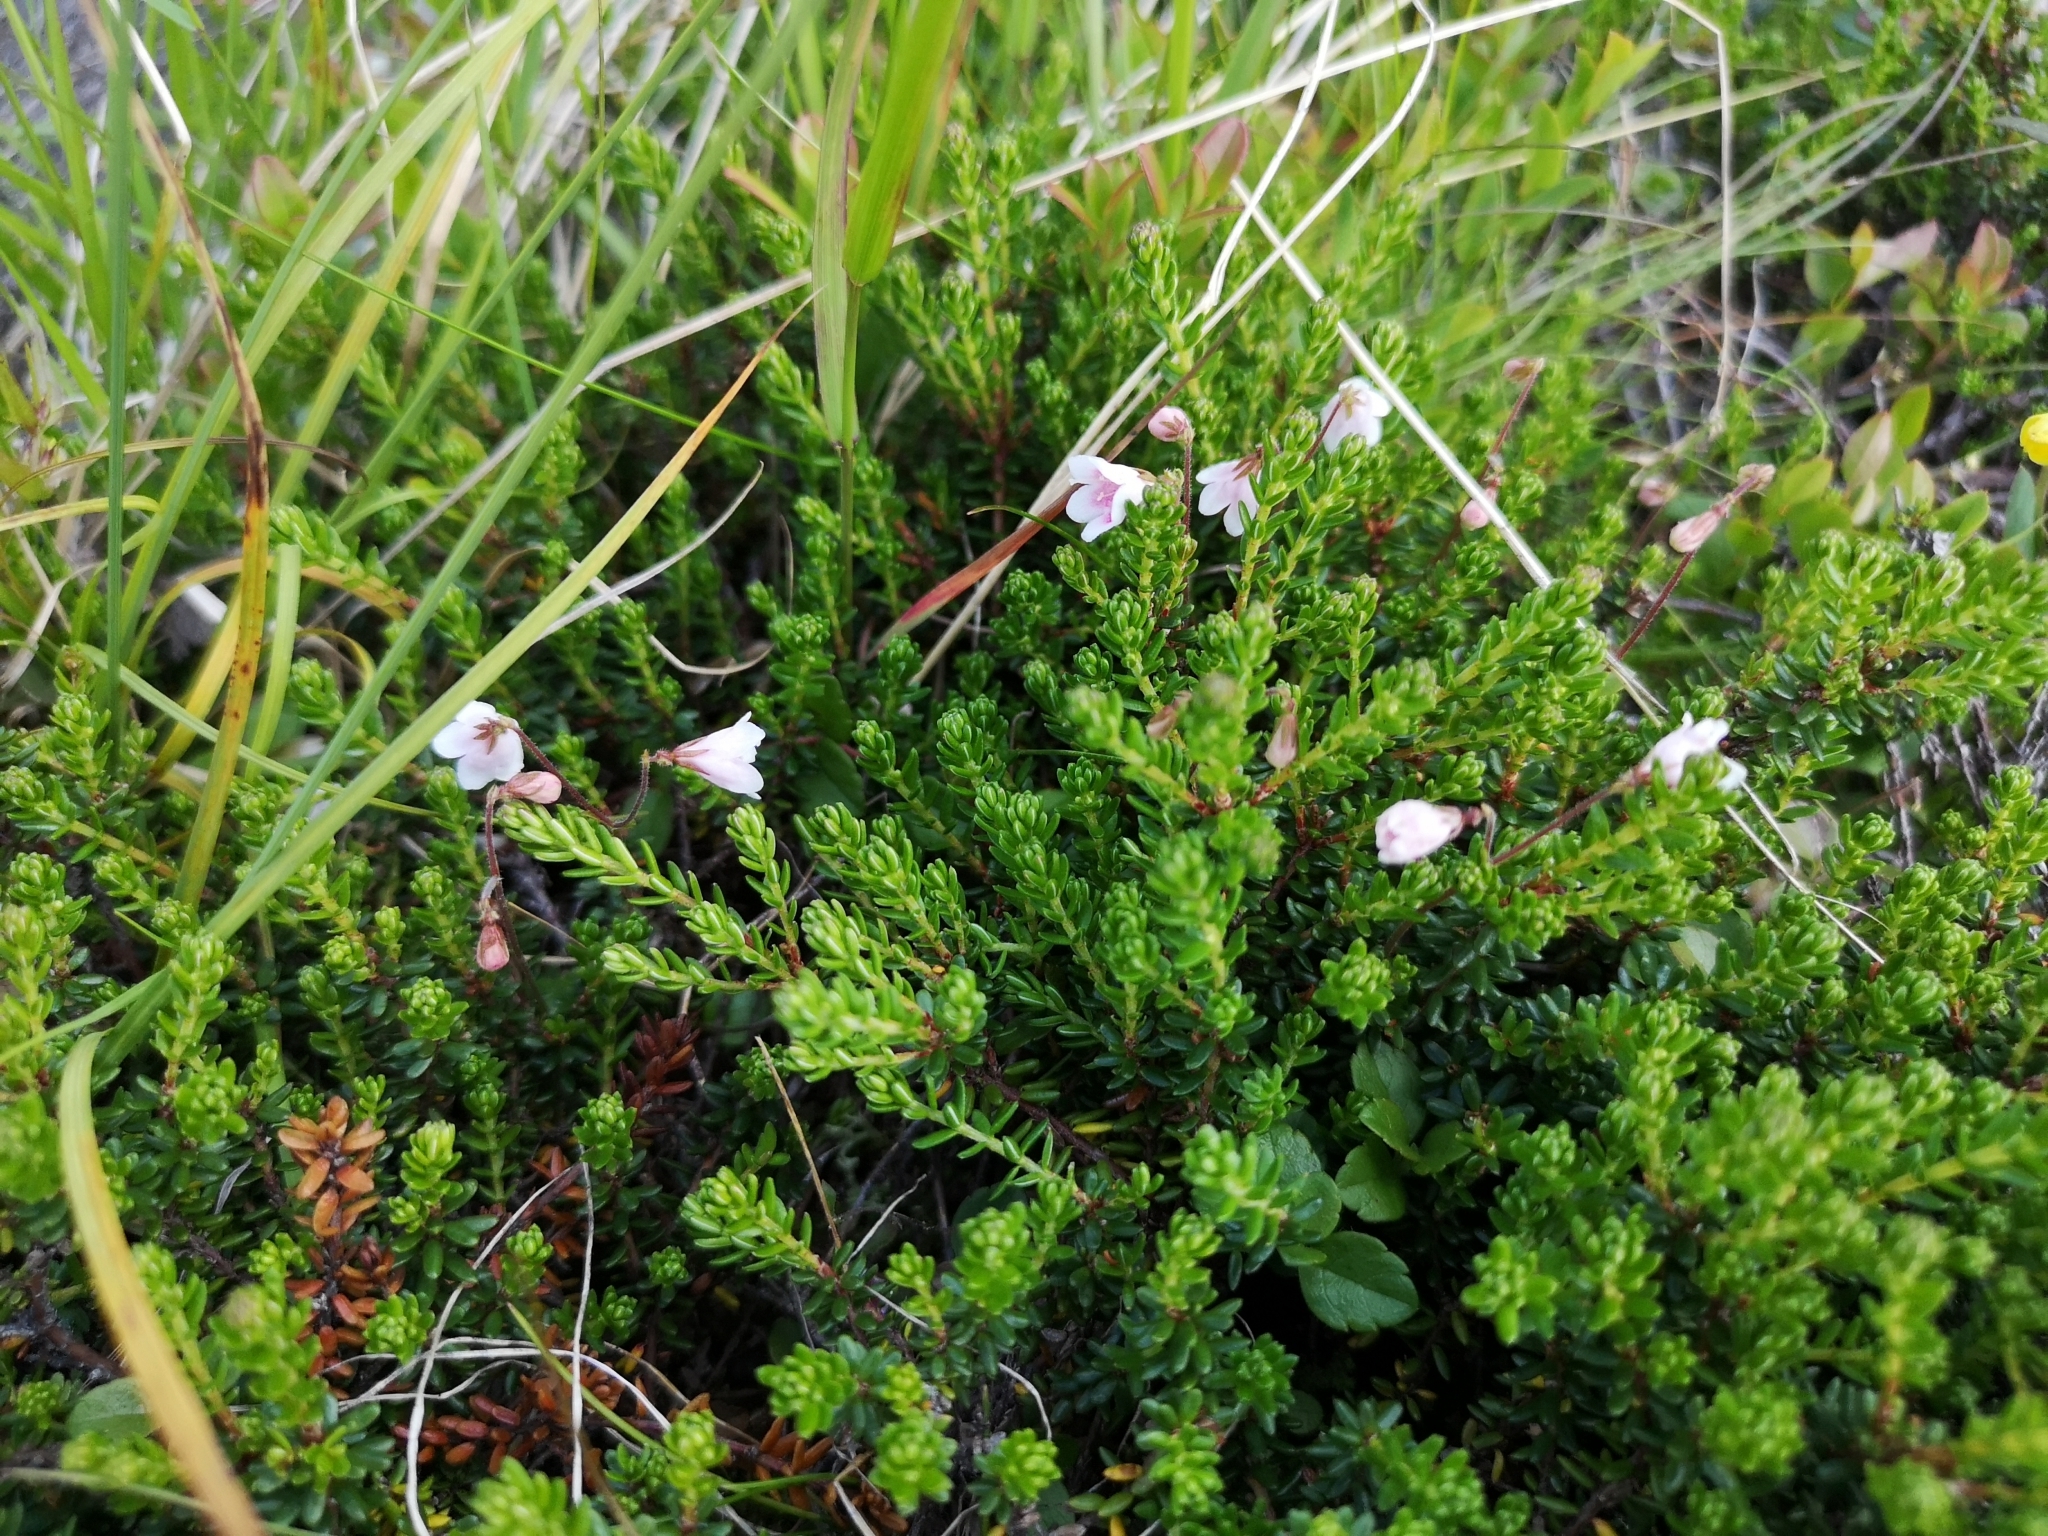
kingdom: Plantae
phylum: Tracheophyta
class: Magnoliopsida
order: Dipsacales
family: Caprifoliaceae
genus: Linnaea
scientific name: Linnaea borealis
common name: Twinflower
